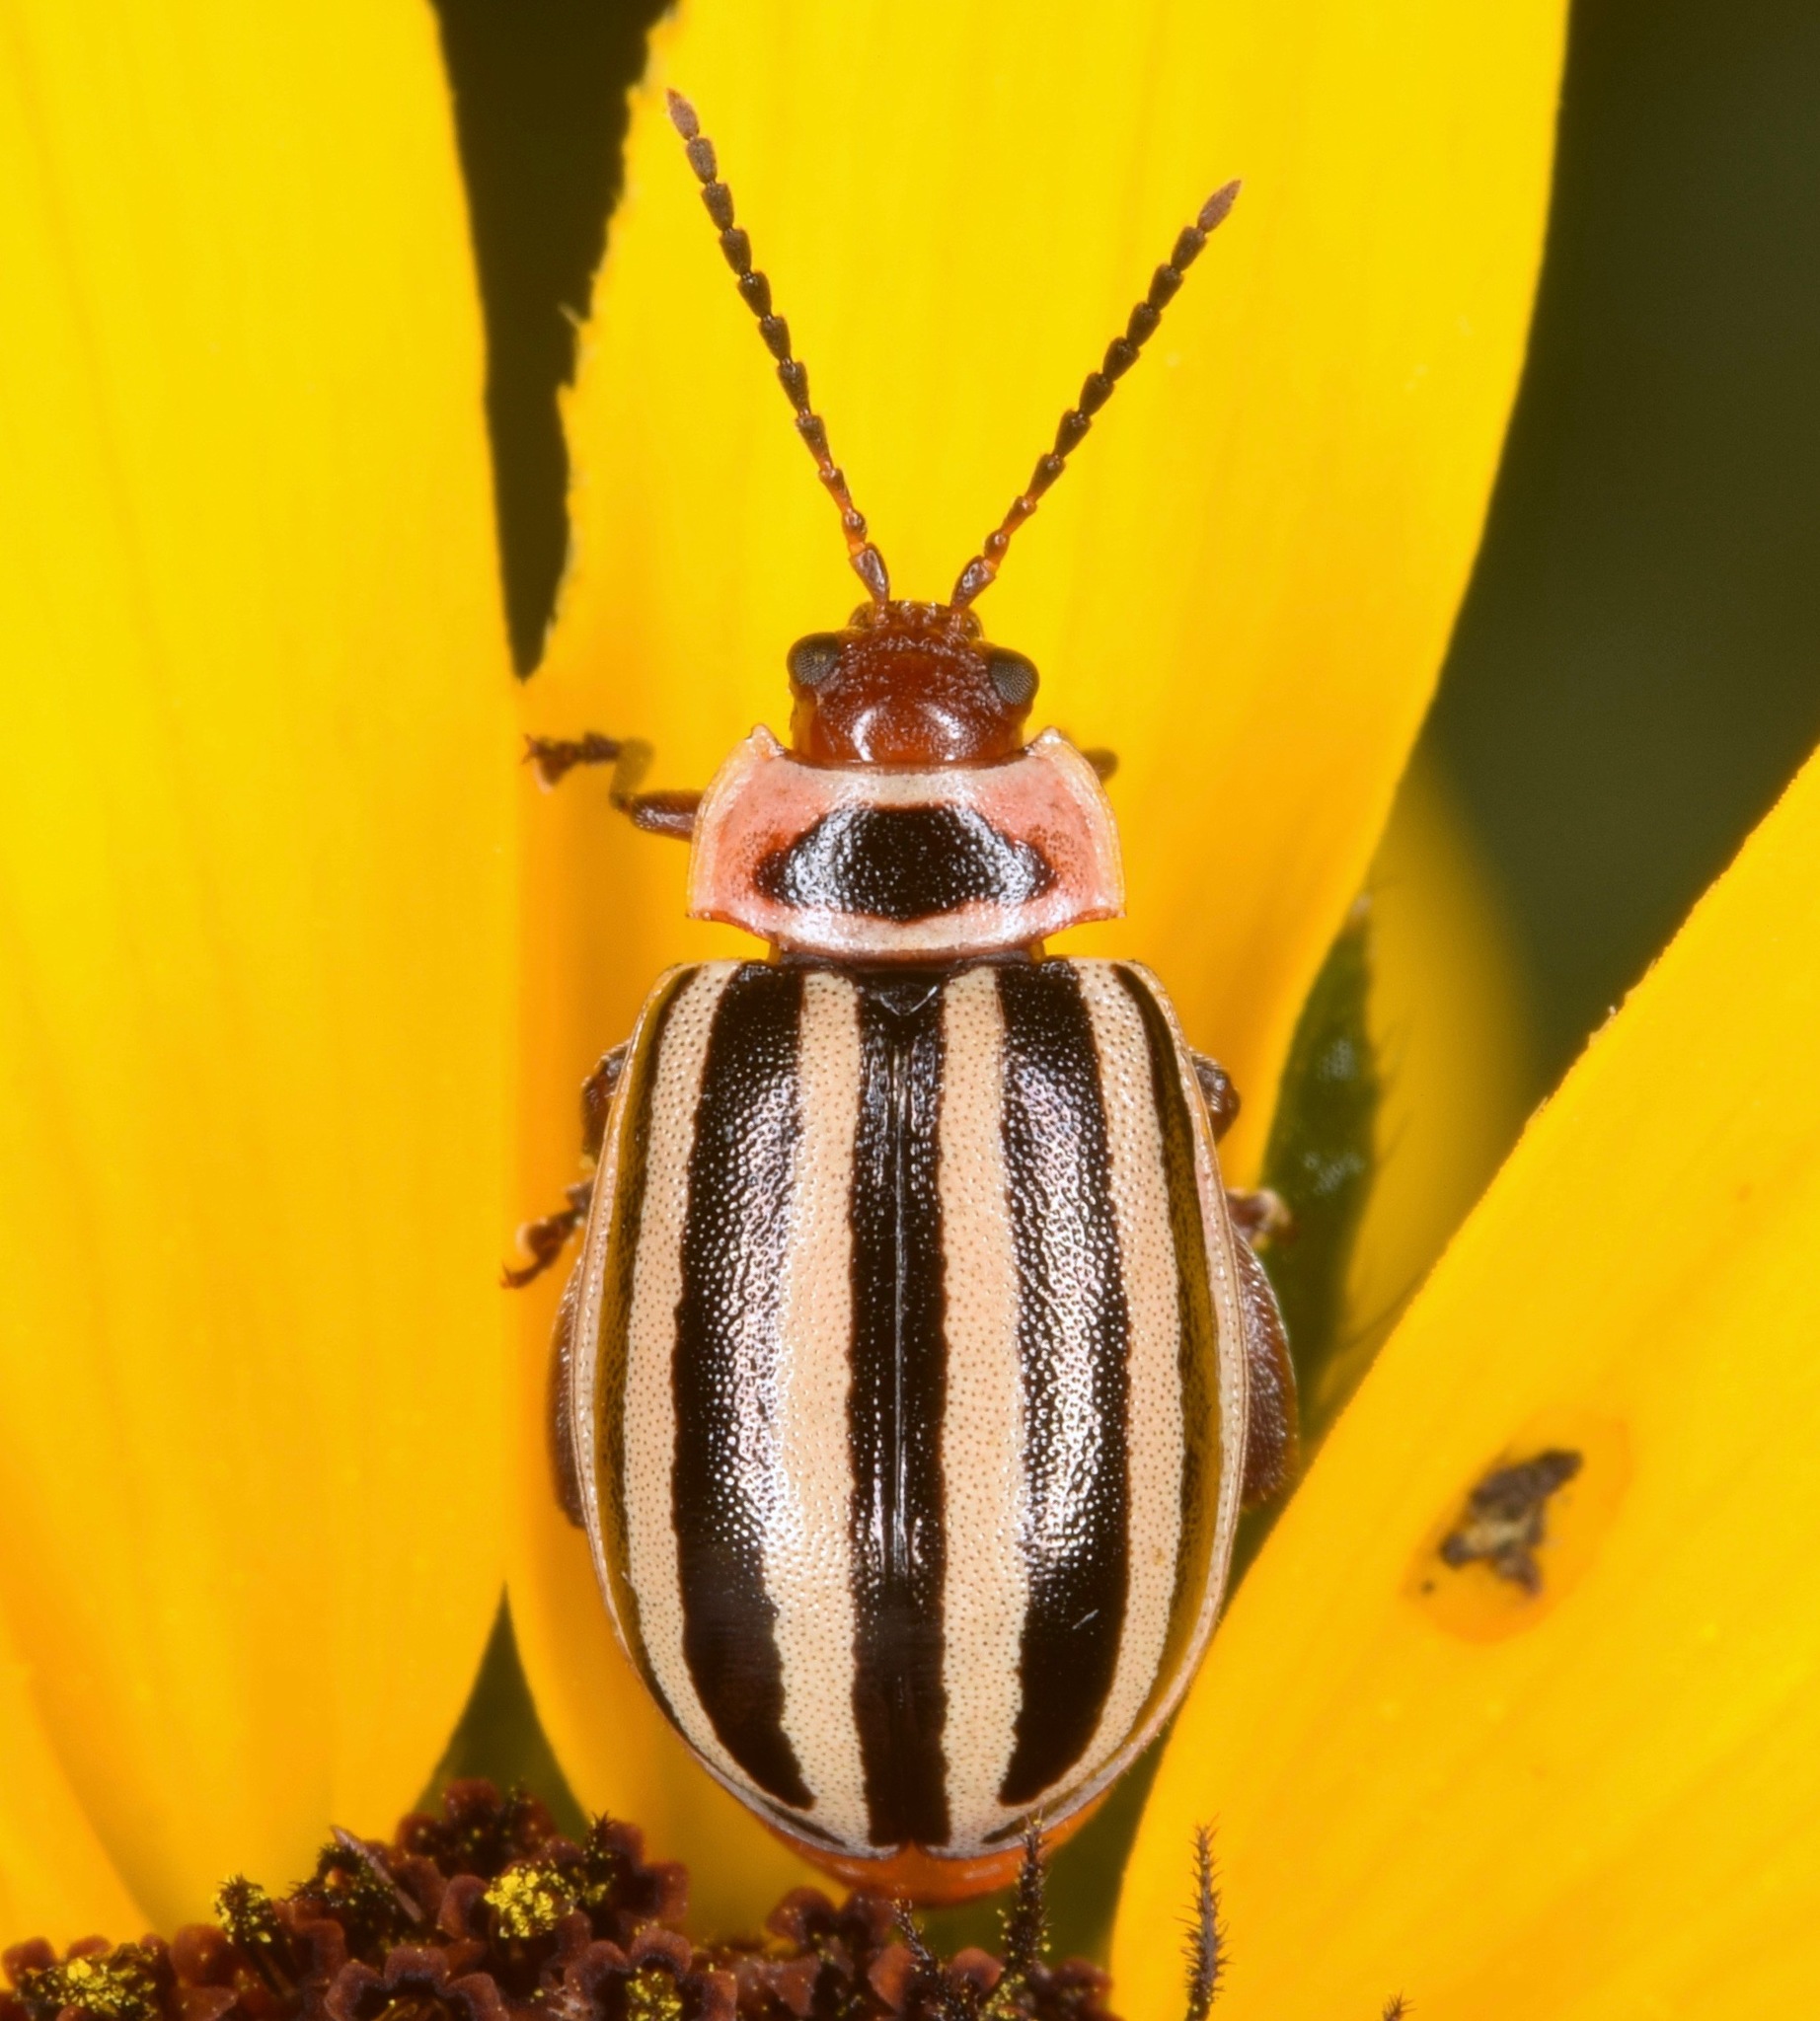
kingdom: Animalia
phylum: Arthropoda
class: Insecta
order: Coleoptera
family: Chrysomelidae
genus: Kuschelina
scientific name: Kuschelina petaurista
